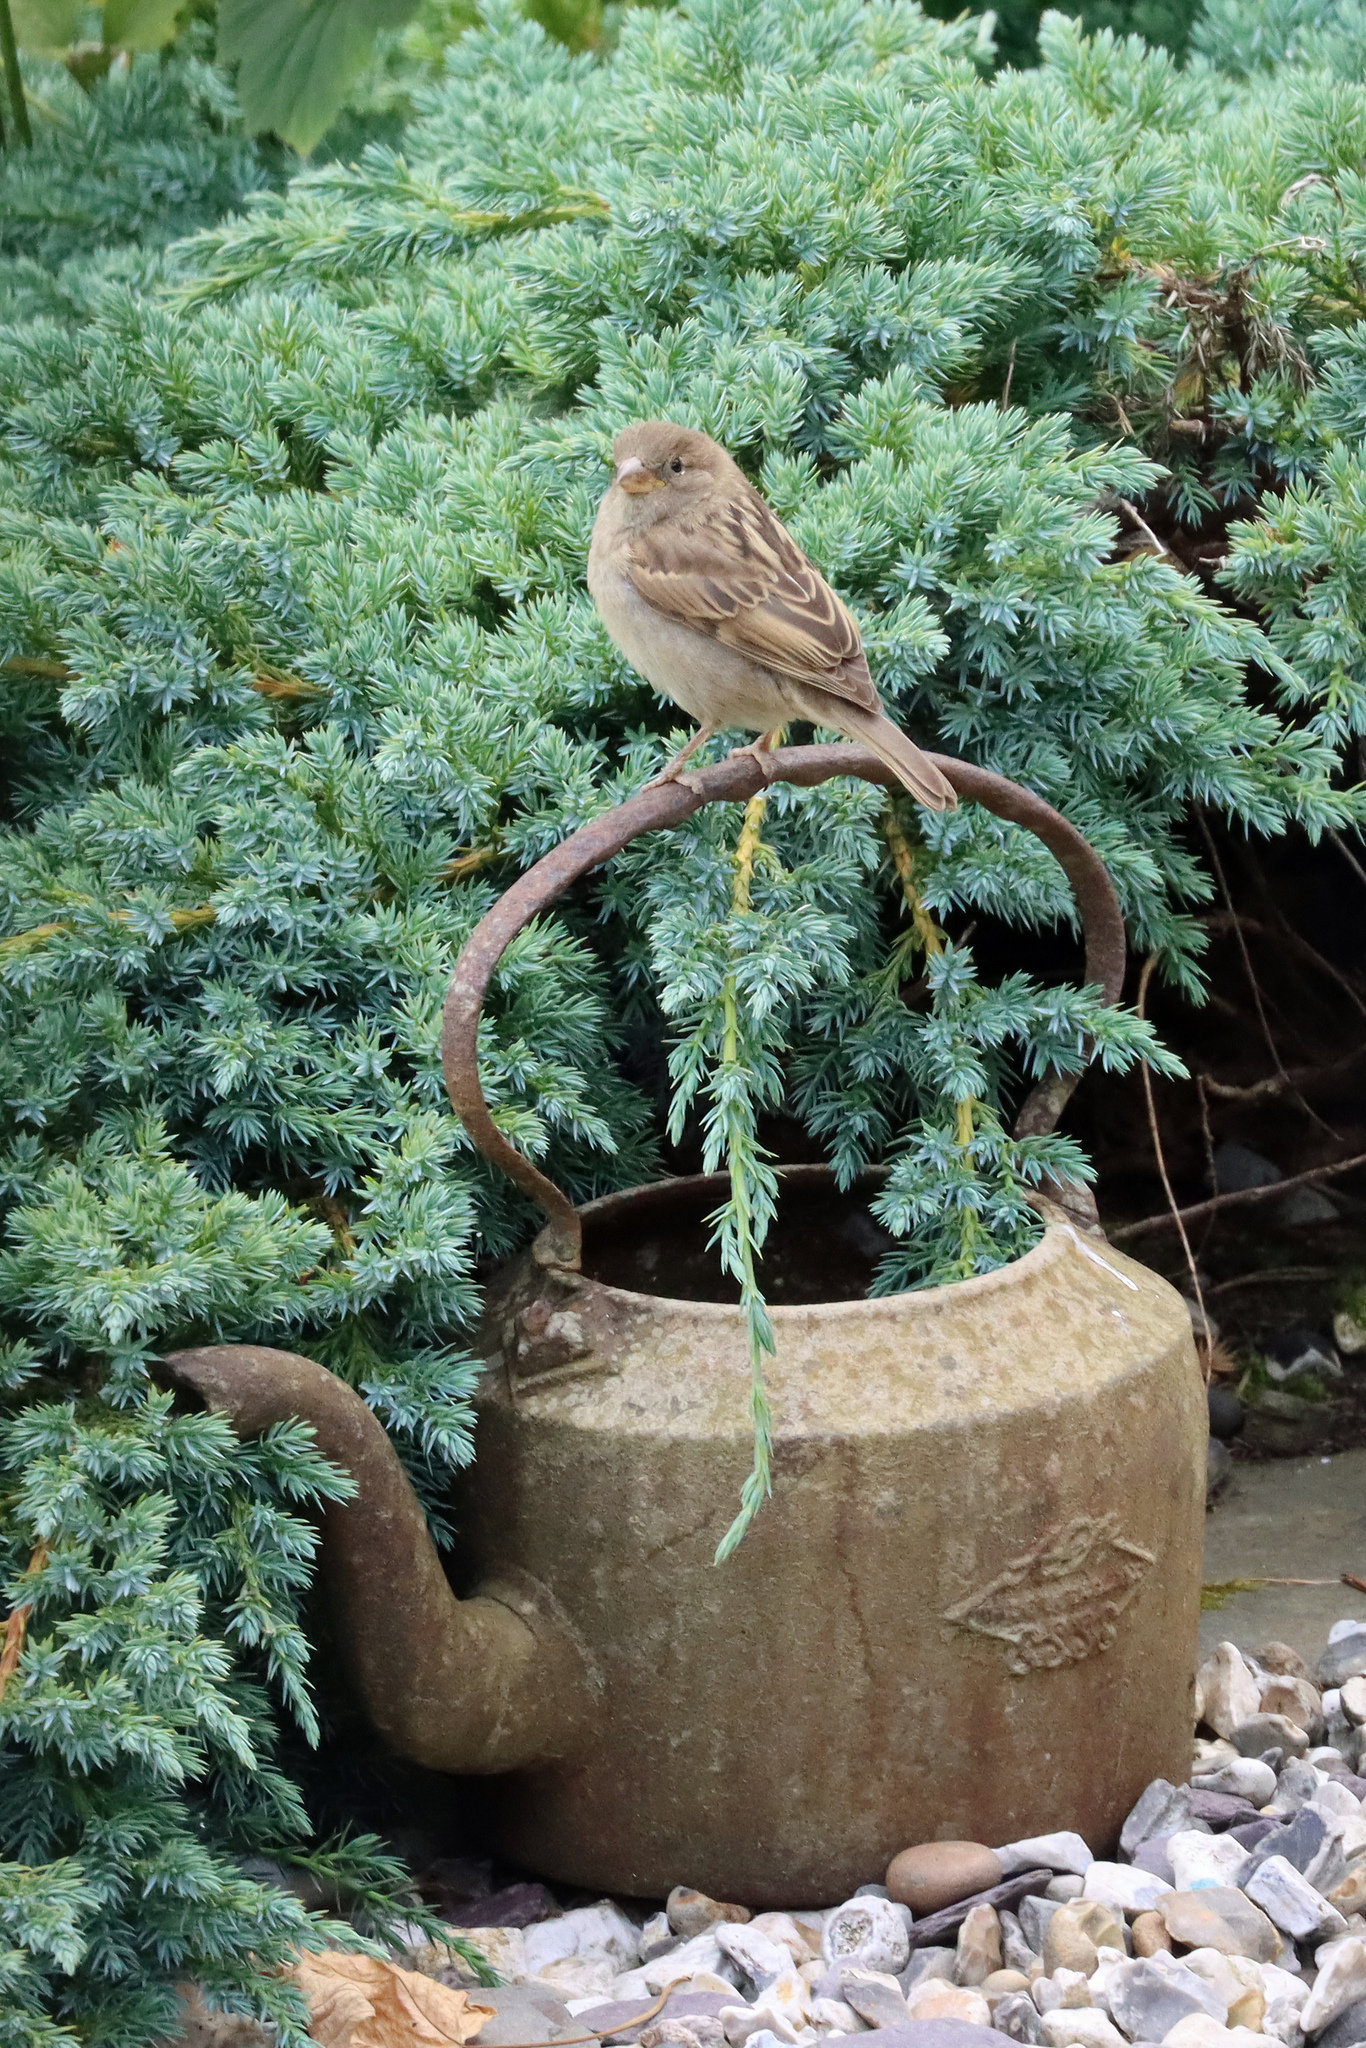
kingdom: Animalia
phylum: Chordata
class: Aves
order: Passeriformes
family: Passeridae
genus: Passer
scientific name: Passer domesticus
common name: House sparrow
